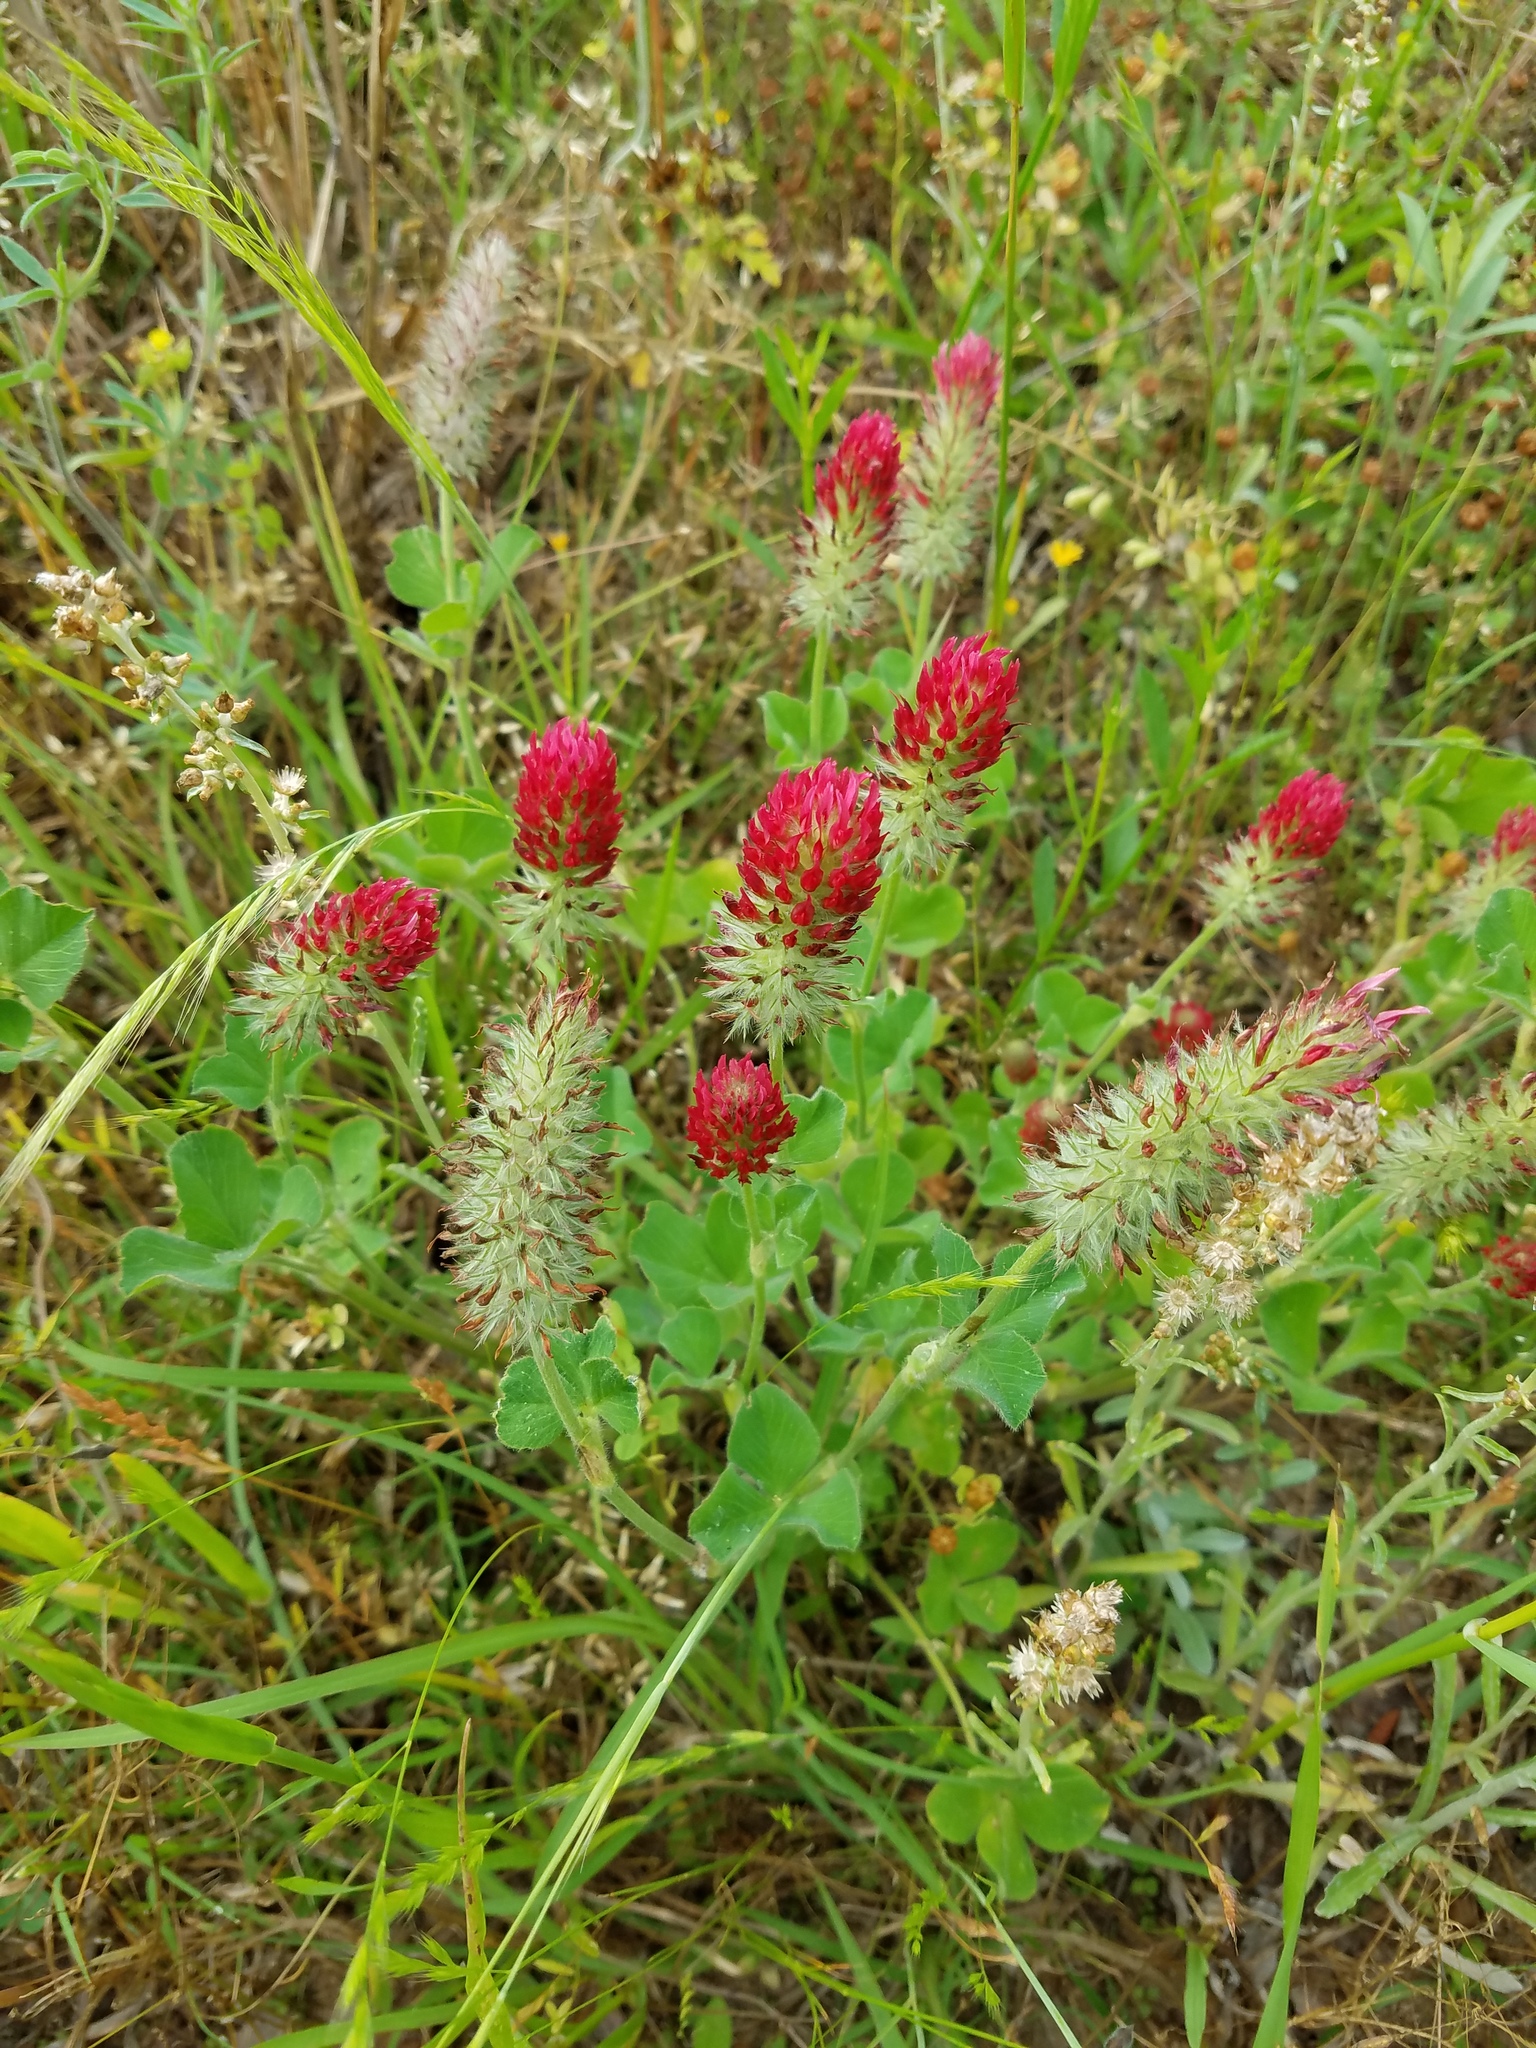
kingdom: Plantae
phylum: Tracheophyta
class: Magnoliopsida
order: Fabales
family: Fabaceae
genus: Trifolium
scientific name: Trifolium incarnatum
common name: Crimson clover
